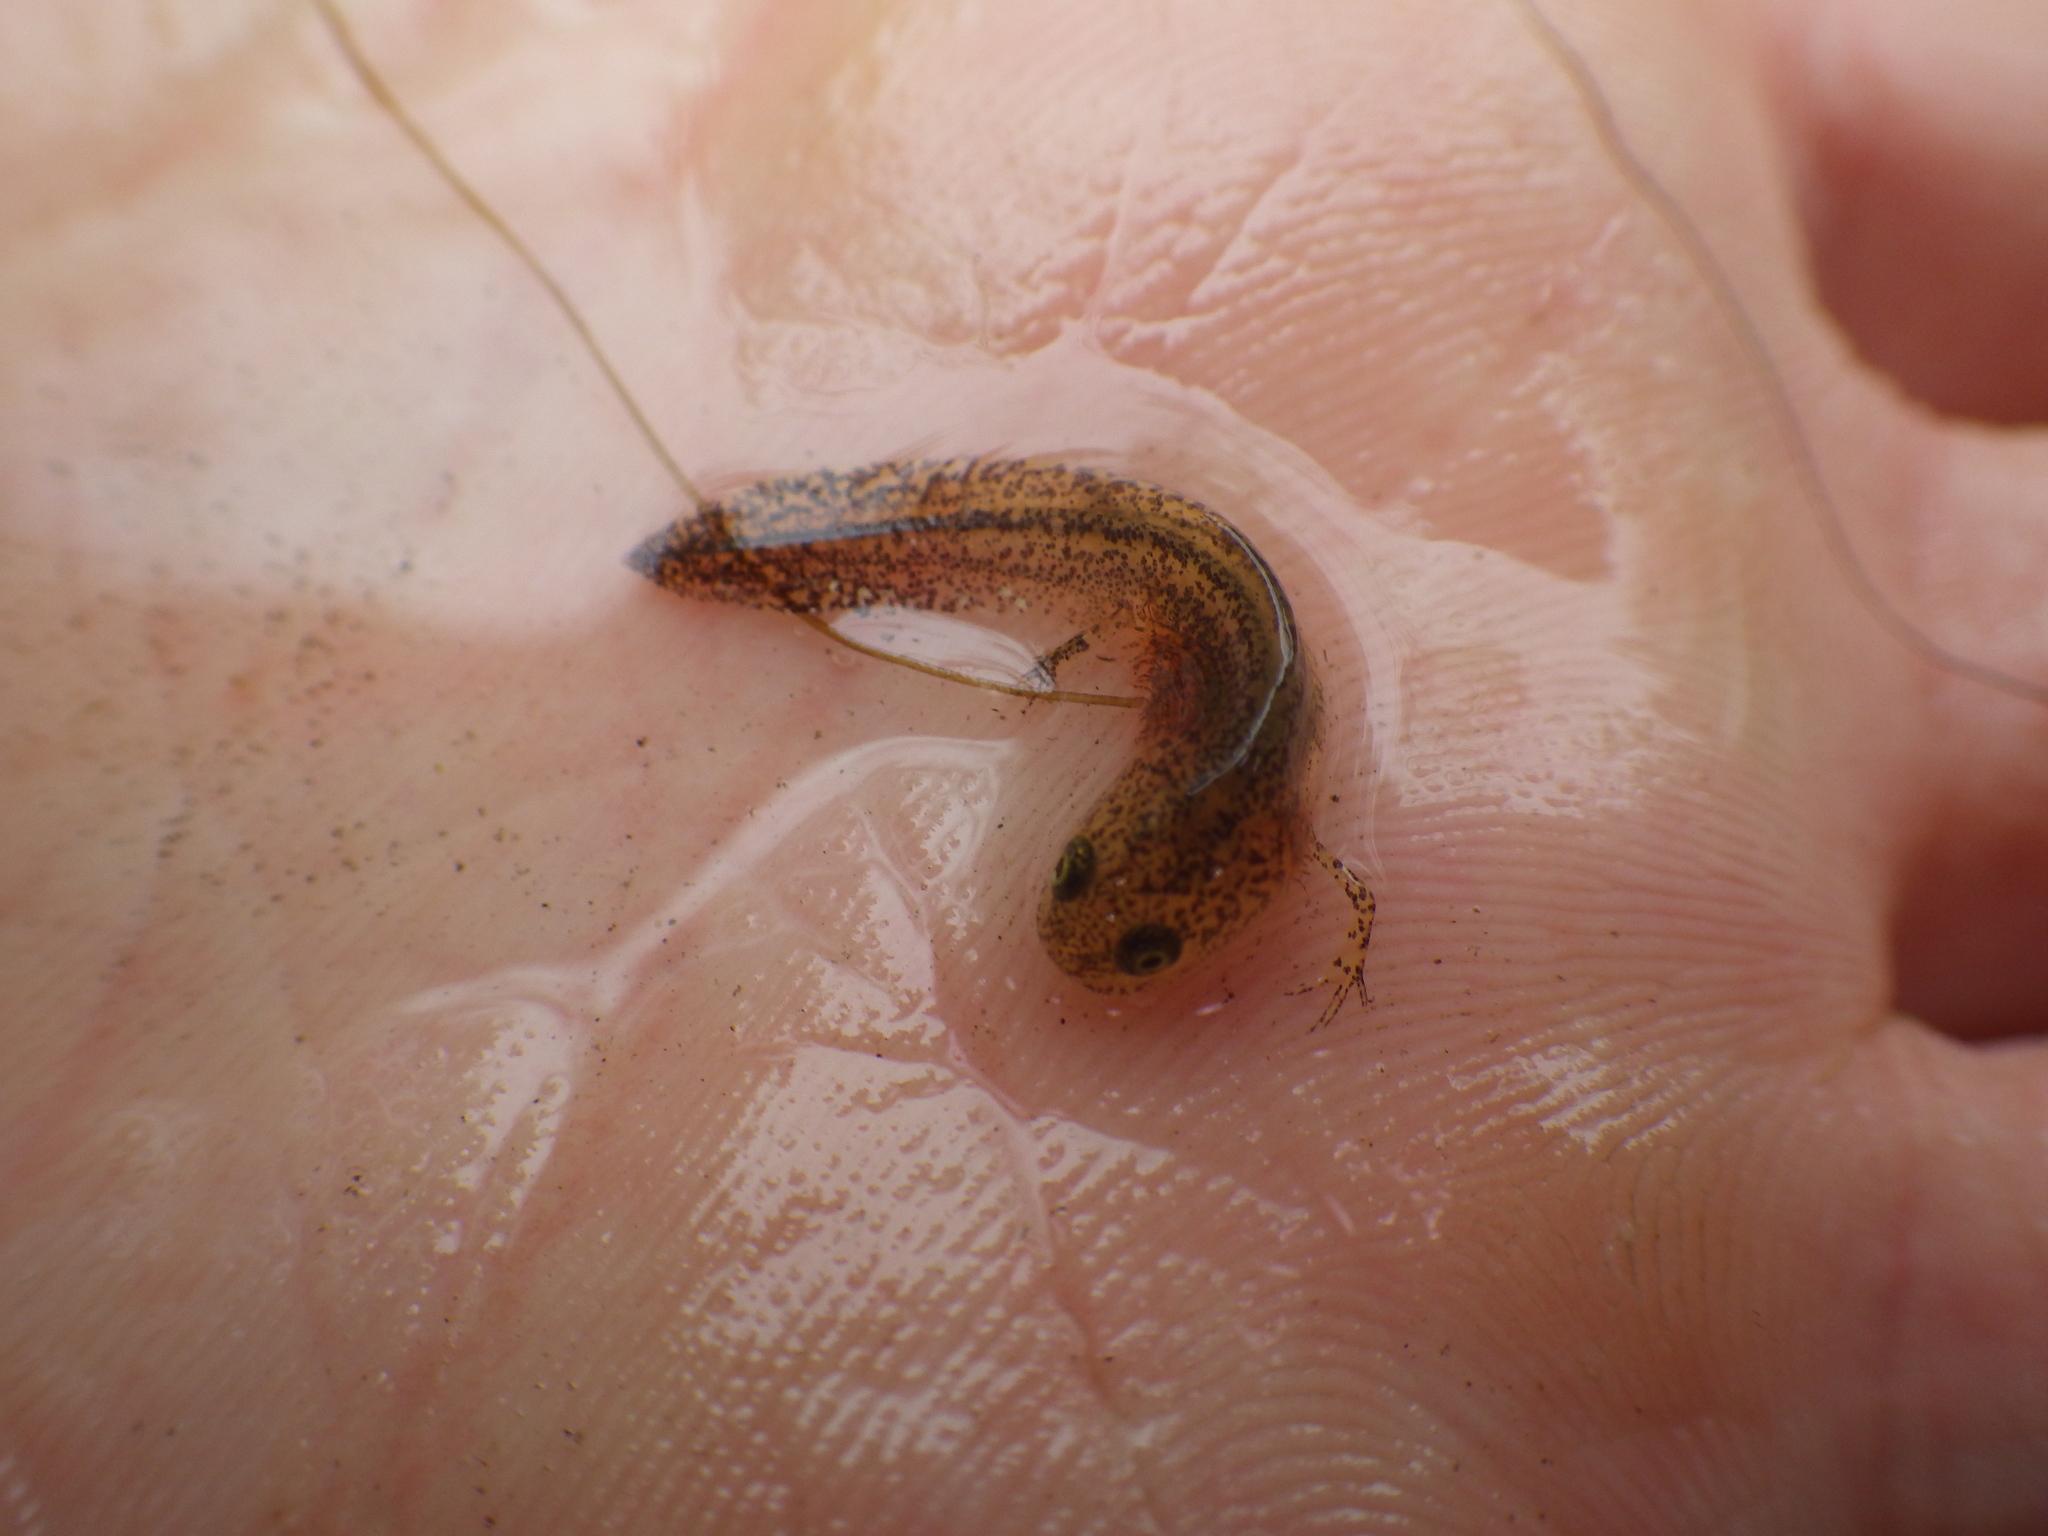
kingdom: Animalia
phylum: Chordata
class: Amphibia
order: Caudata
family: Salamandridae
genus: Ichthyosaura
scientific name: Ichthyosaura alpestris
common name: Alpine newt
